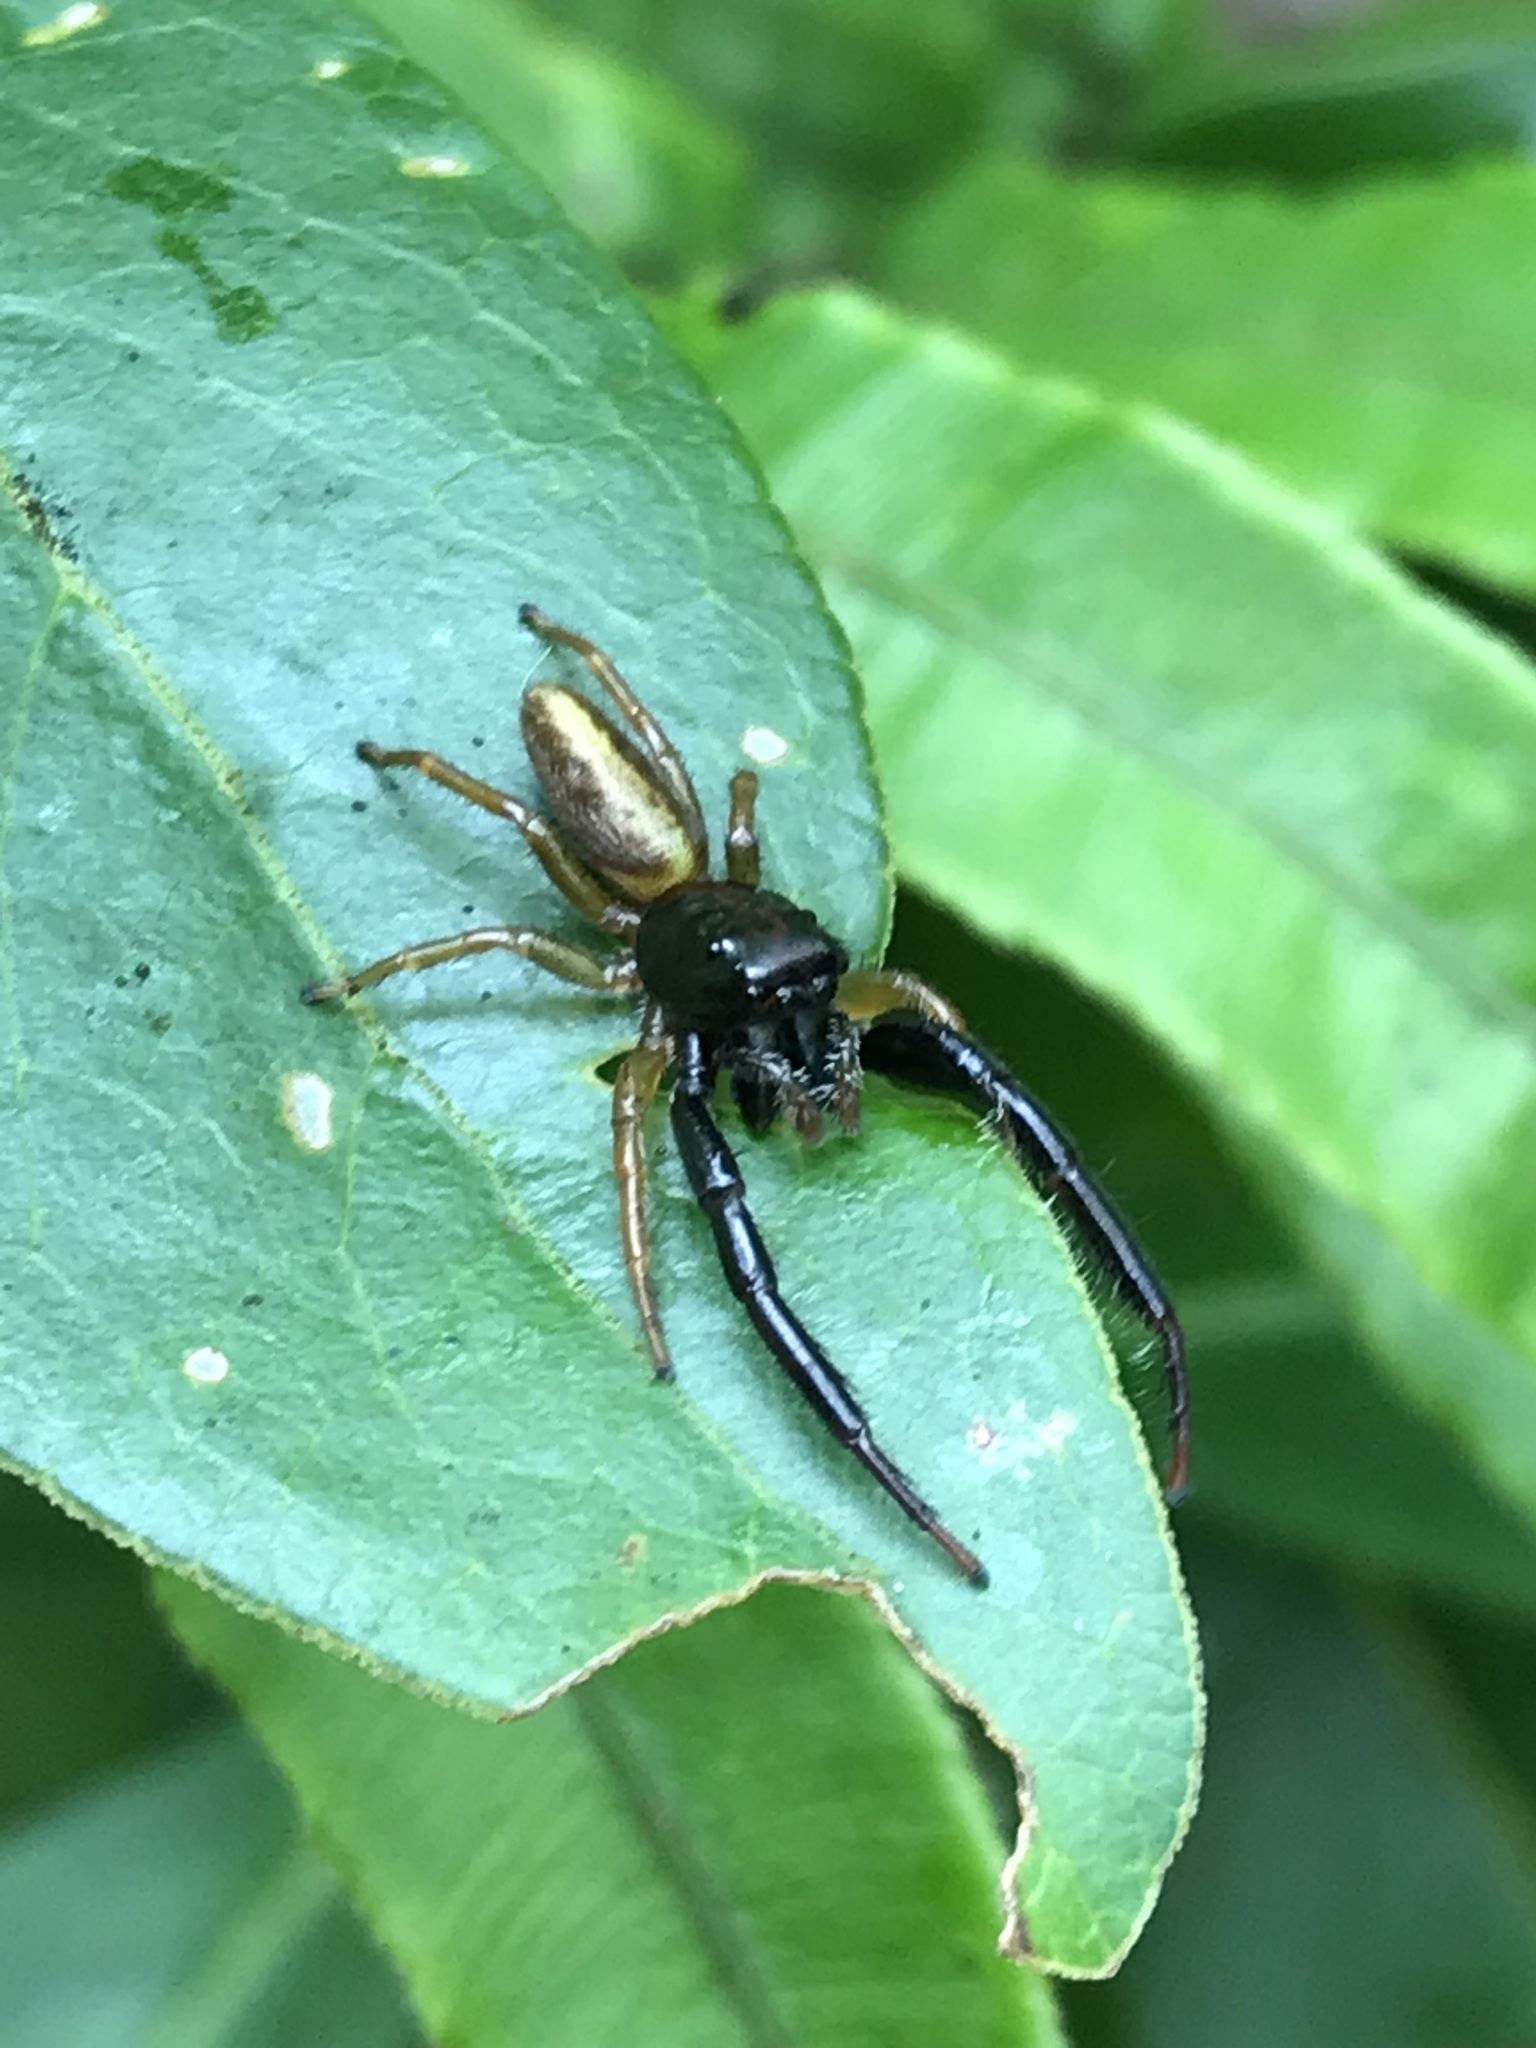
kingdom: Animalia
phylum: Arthropoda
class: Arachnida
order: Araneae
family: Salticidae
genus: Trite
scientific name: Trite planiceps
